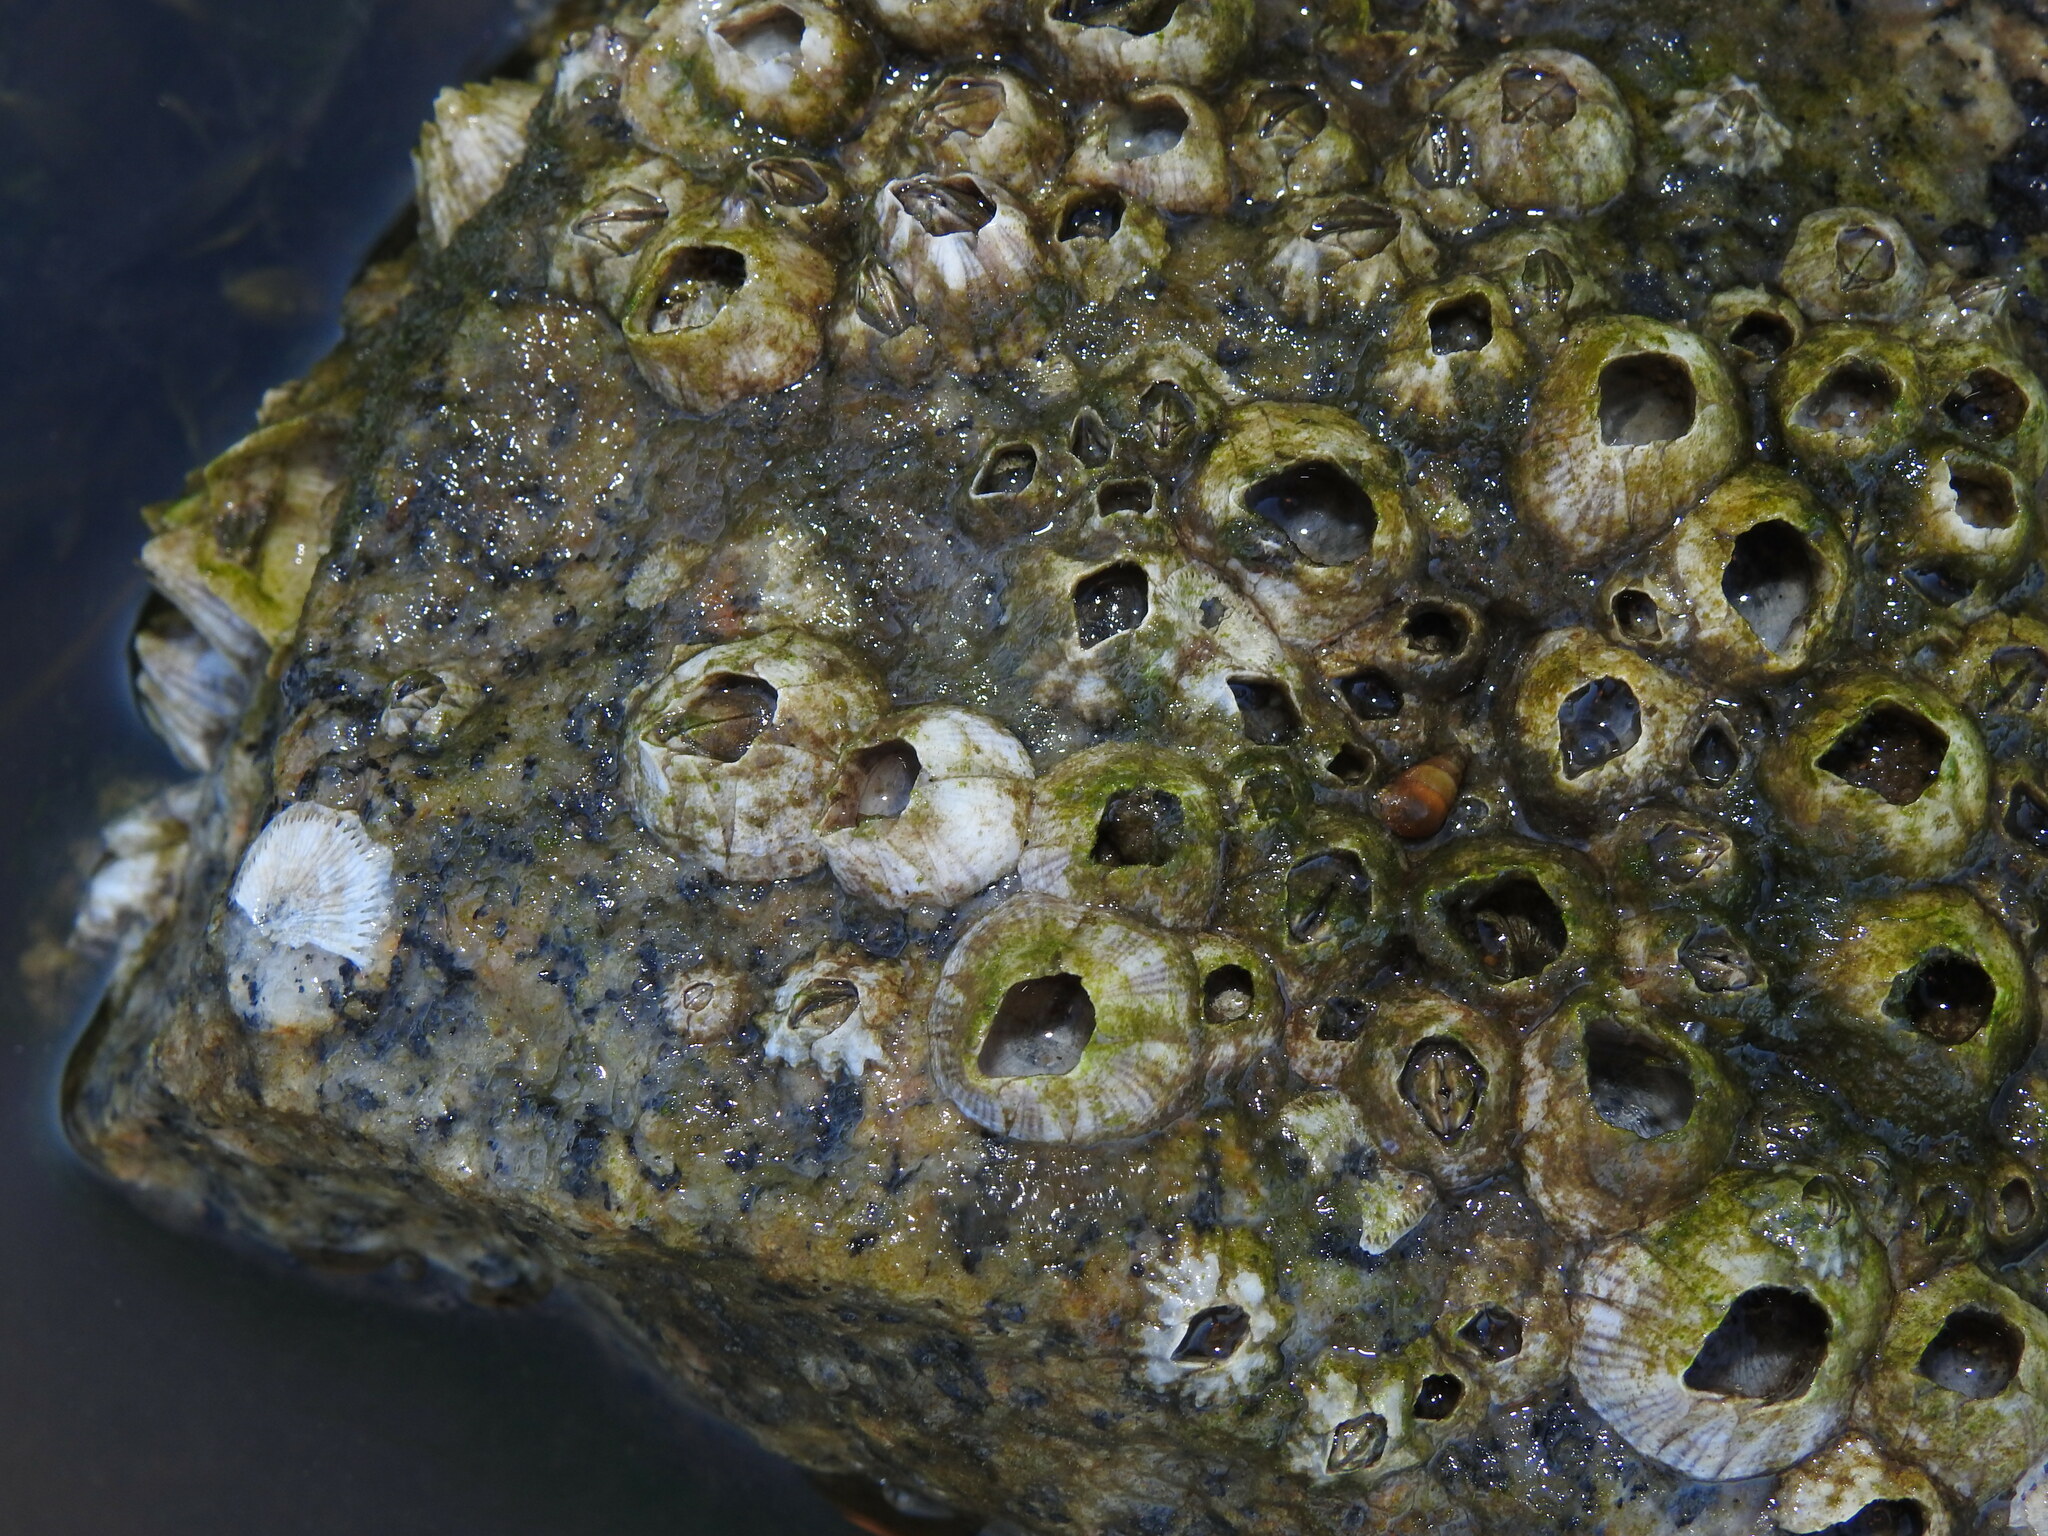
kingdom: Animalia
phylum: Arthropoda
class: Maxillopoda
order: Sessilia
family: Balanidae
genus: Amphibalanus
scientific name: Amphibalanus amphitrite
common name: Striped acorn barnacle
